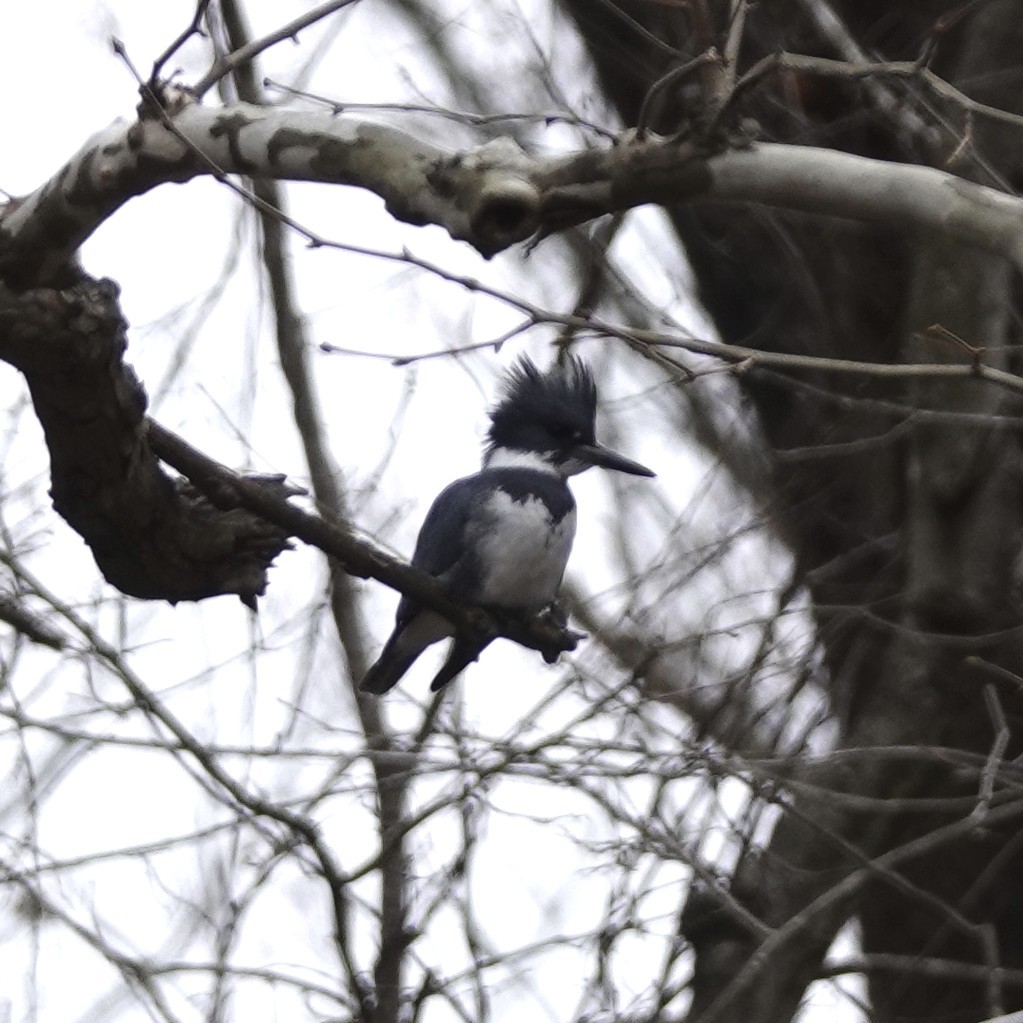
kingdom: Animalia
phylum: Chordata
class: Aves
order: Coraciiformes
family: Alcedinidae
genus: Megaceryle
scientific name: Megaceryle alcyon
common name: Belted kingfisher
